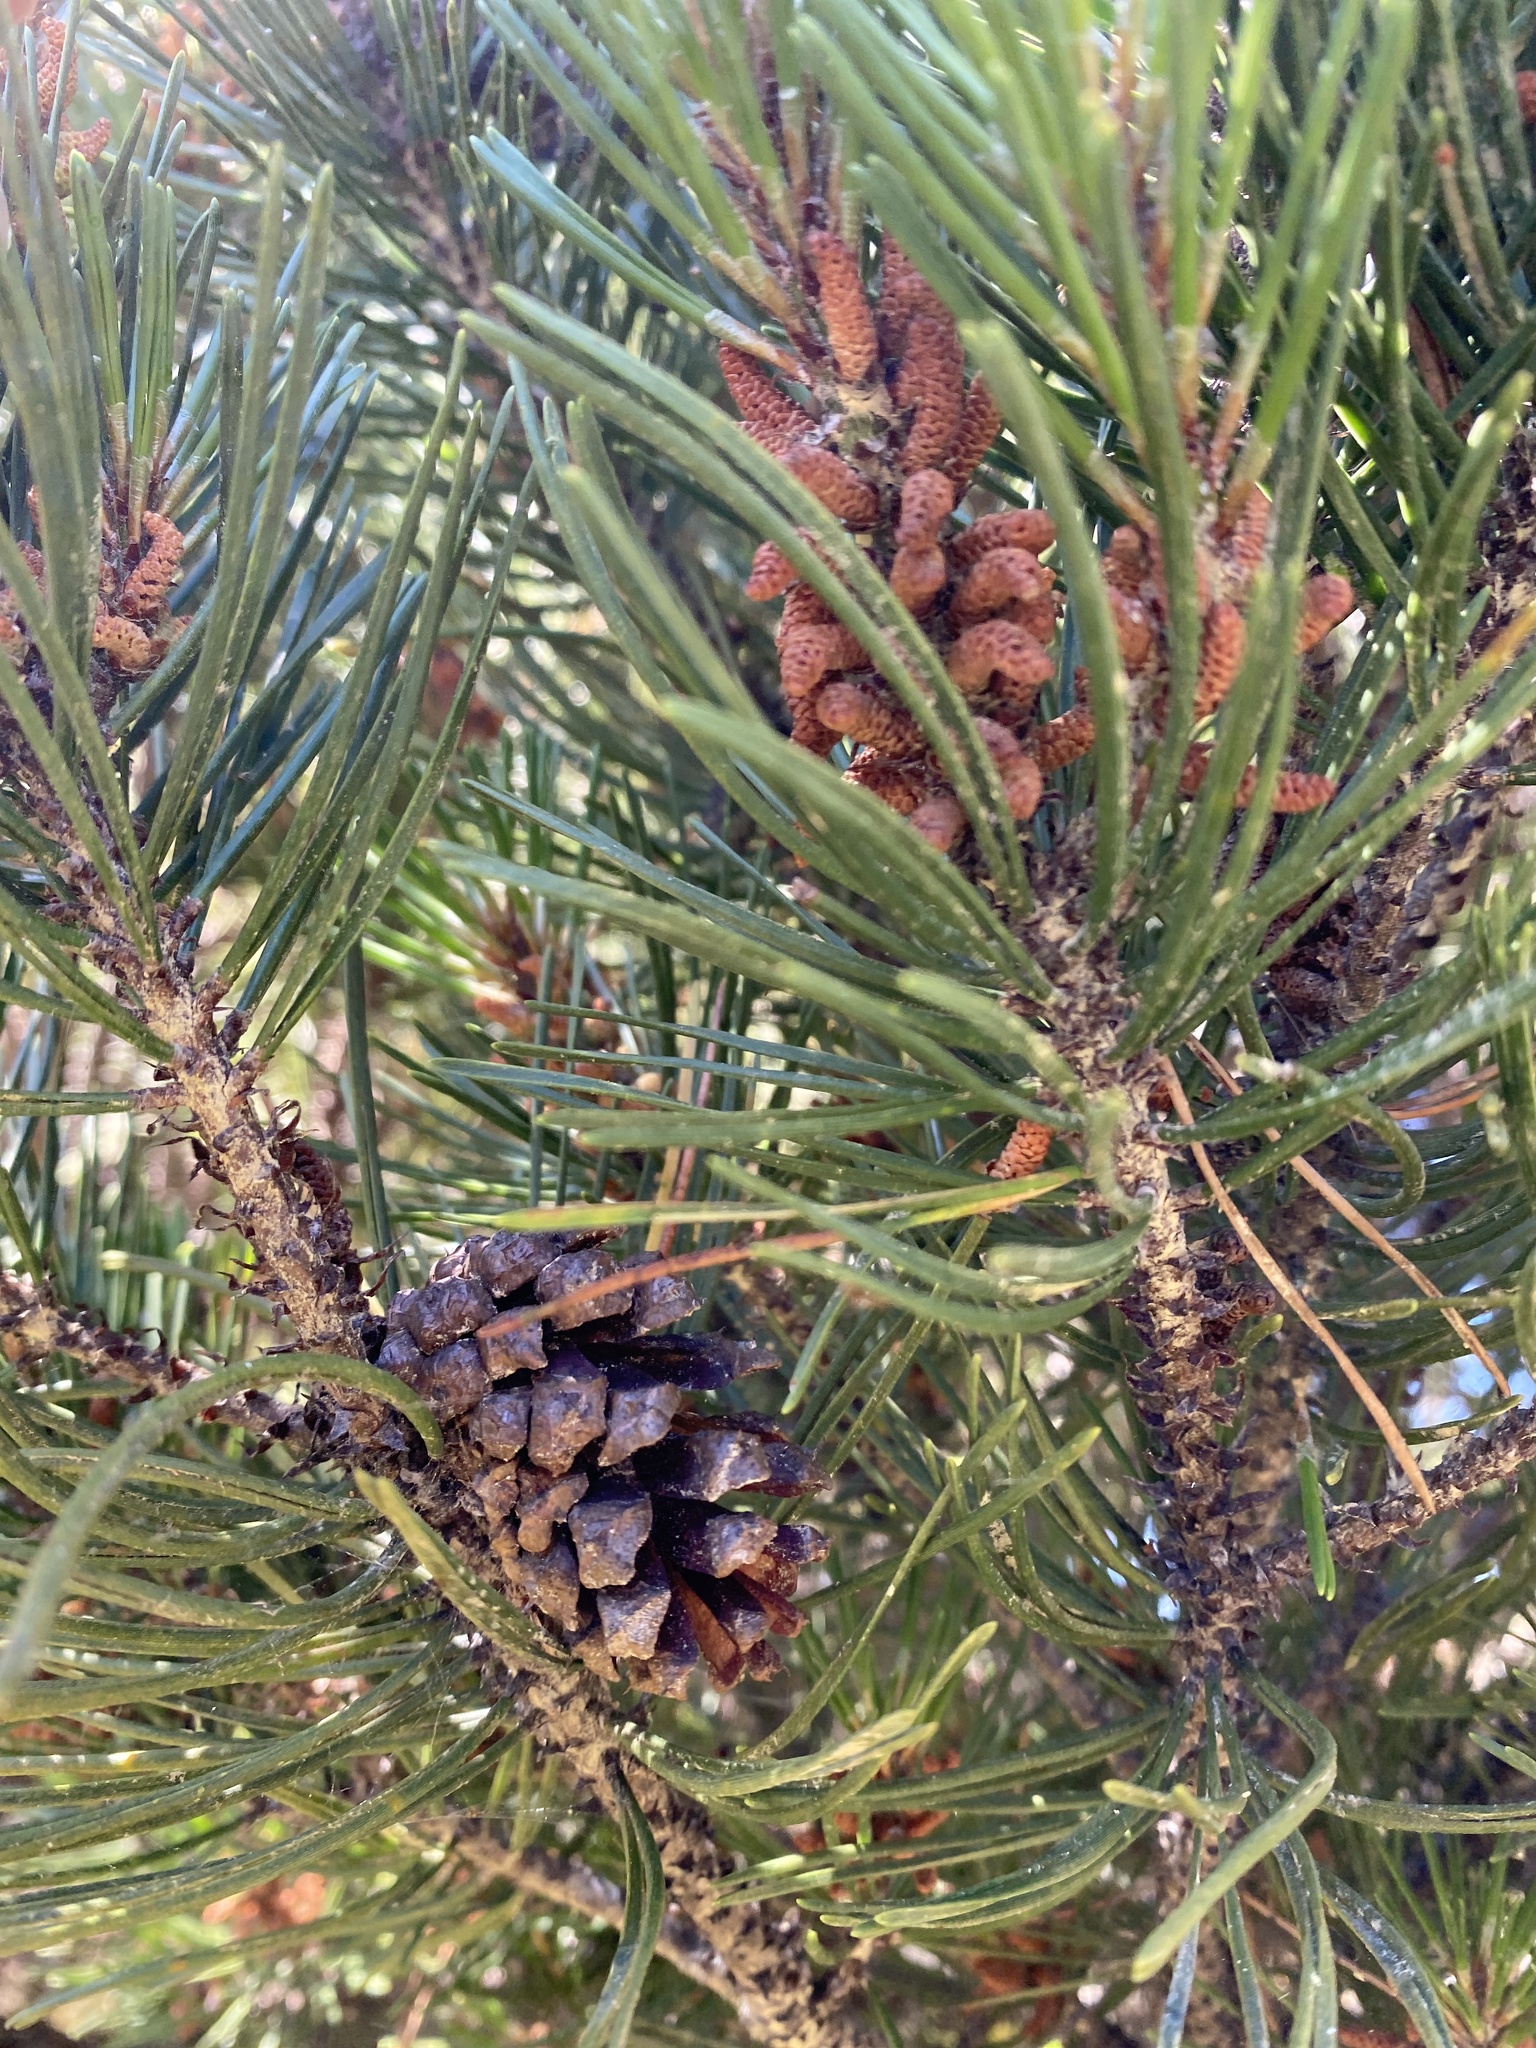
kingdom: Plantae
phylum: Tracheophyta
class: Pinopsida
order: Pinales
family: Pinaceae
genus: Pinus
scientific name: Pinus contorta
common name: Lodgepole pine
